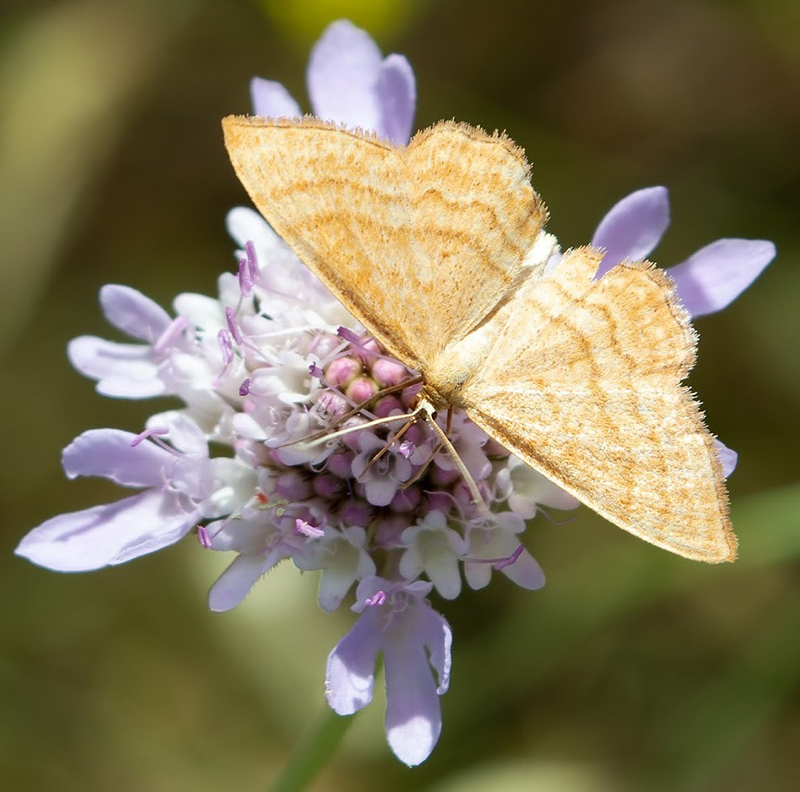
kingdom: Animalia
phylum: Arthropoda
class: Insecta
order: Lepidoptera
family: Geometridae
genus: Idaea
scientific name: Idaea ochrata
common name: Bright wave
